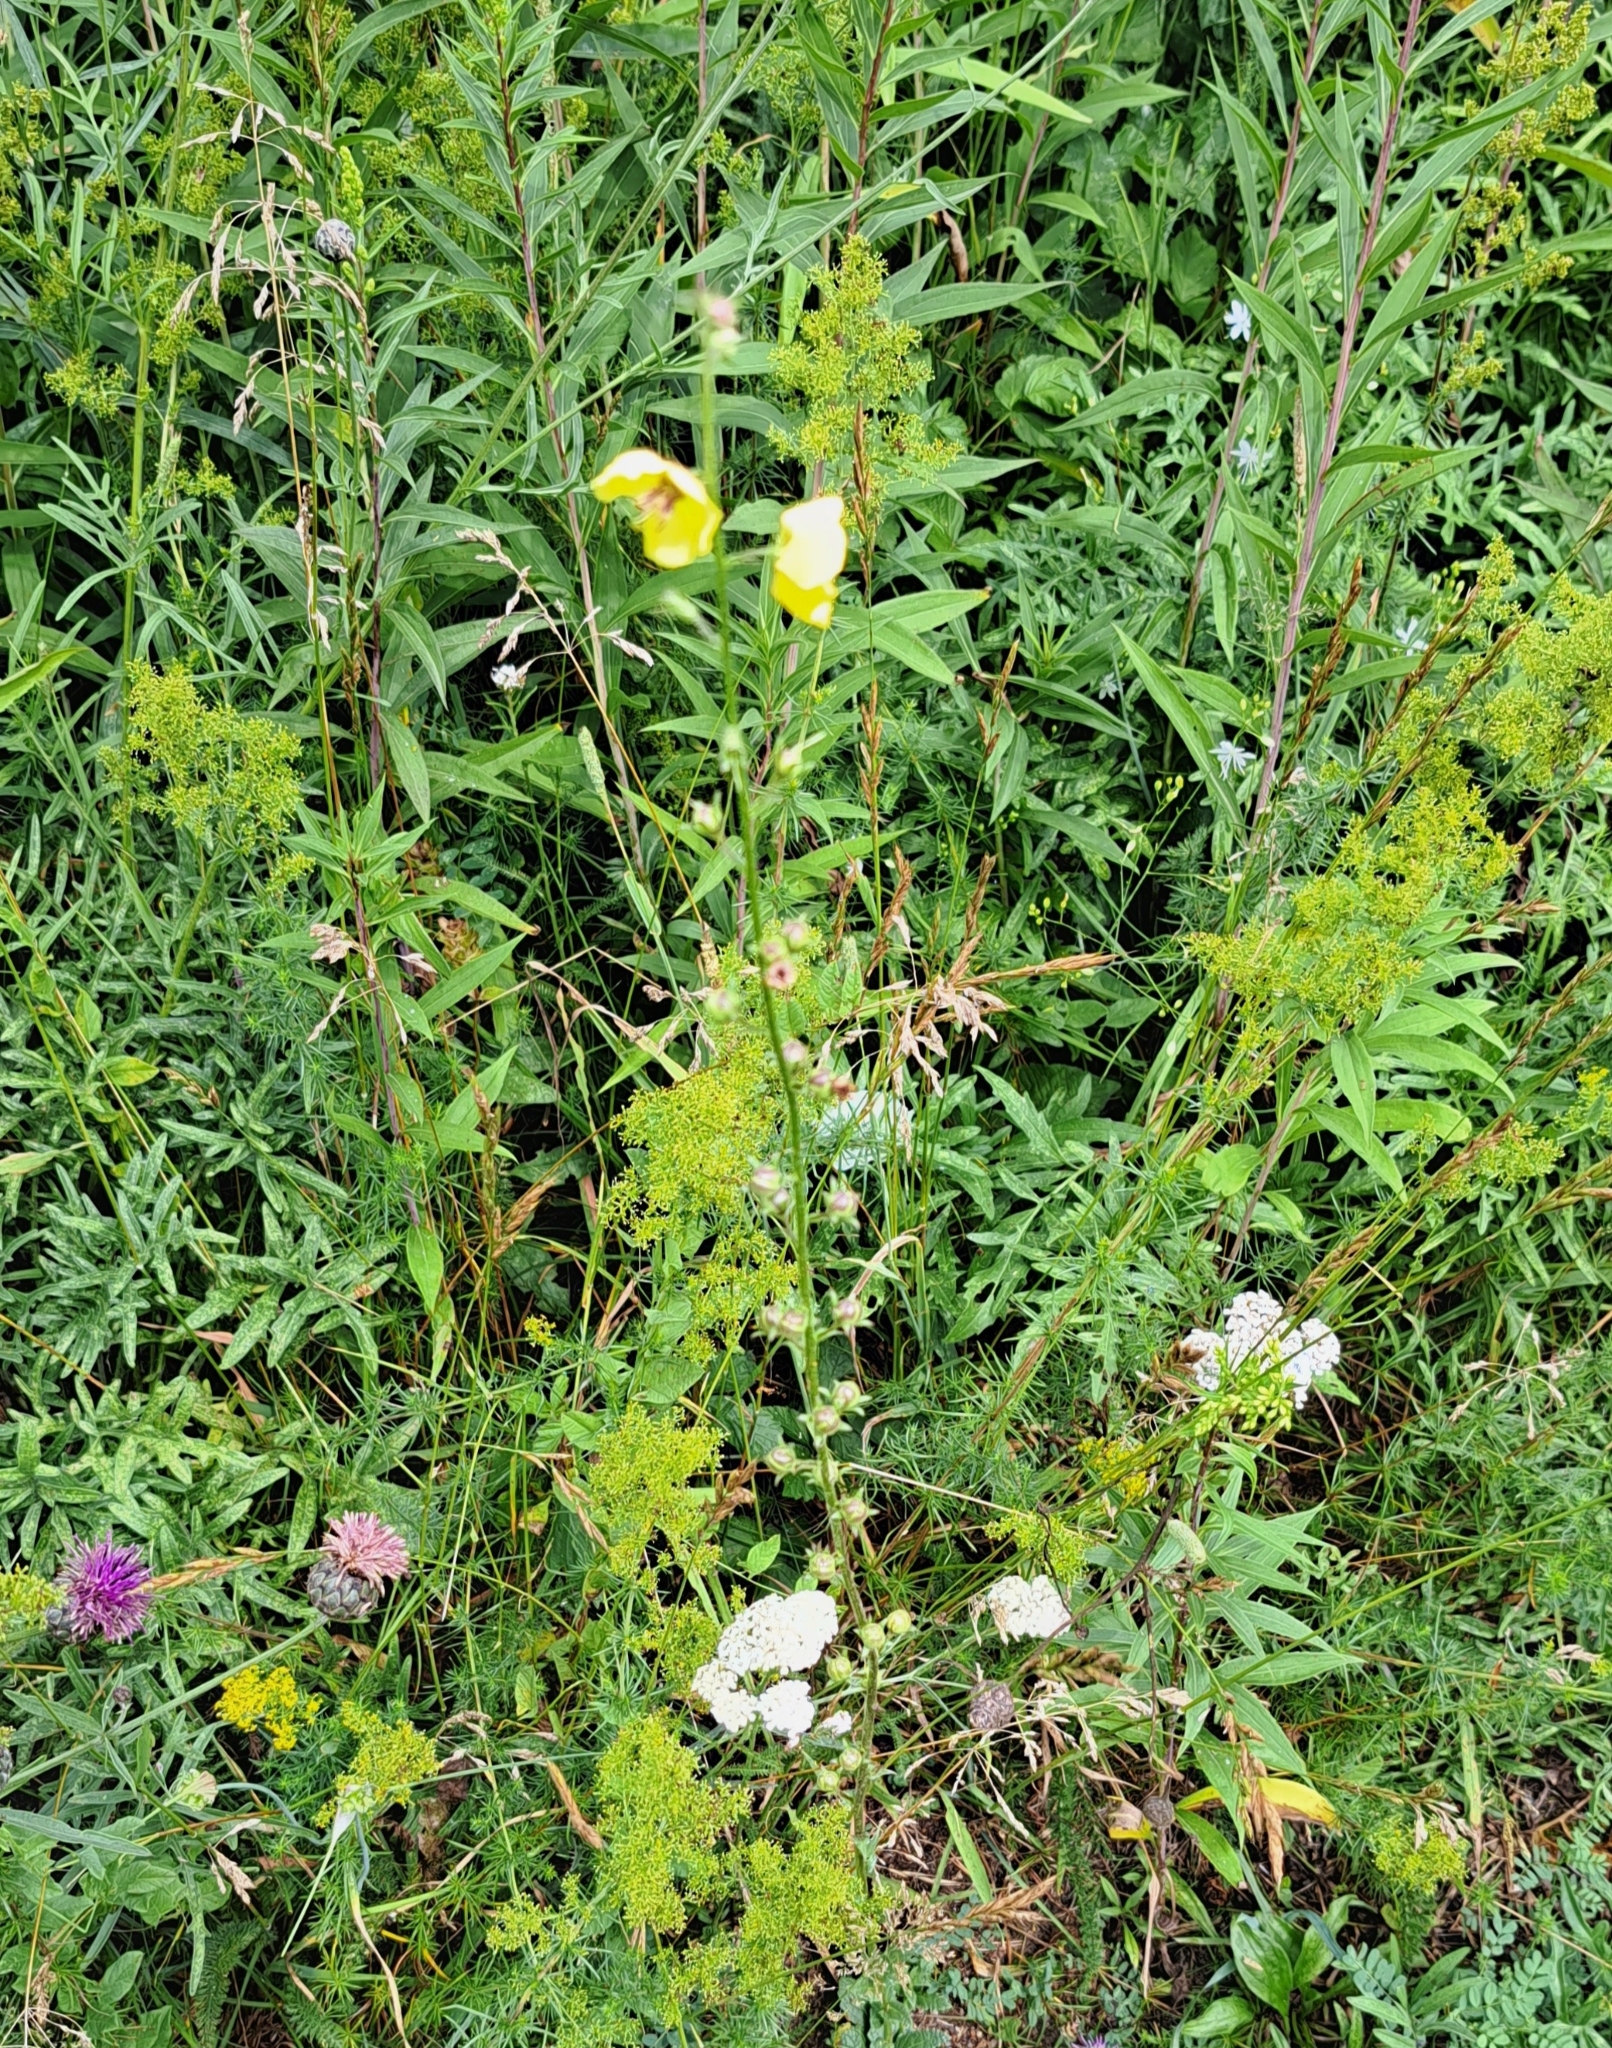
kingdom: Plantae
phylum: Tracheophyta
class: Magnoliopsida
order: Lamiales
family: Scrophulariaceae
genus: Verbascum
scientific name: Verbascum blattaria
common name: Moth mullein
